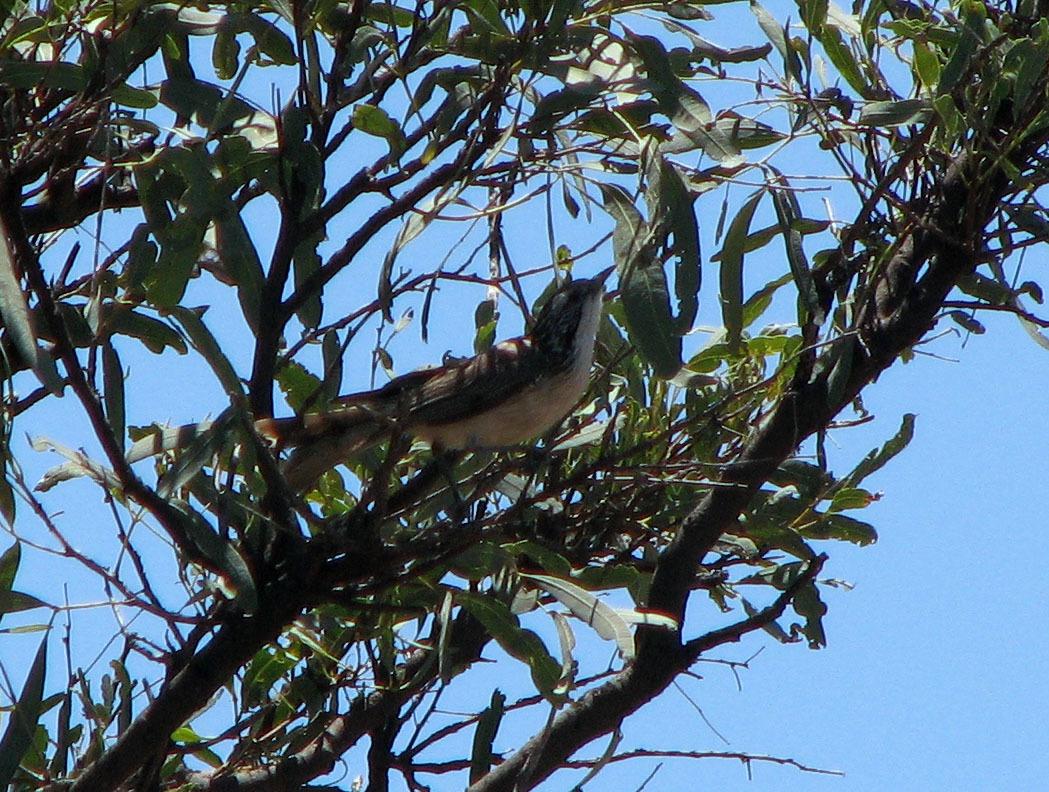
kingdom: Animalia
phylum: Chordata
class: Aves
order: Passeriformes
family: Meliphagidae
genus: Plectorhyncha
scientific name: Plectorhyncha lanceolata
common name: Striped honeyeater
